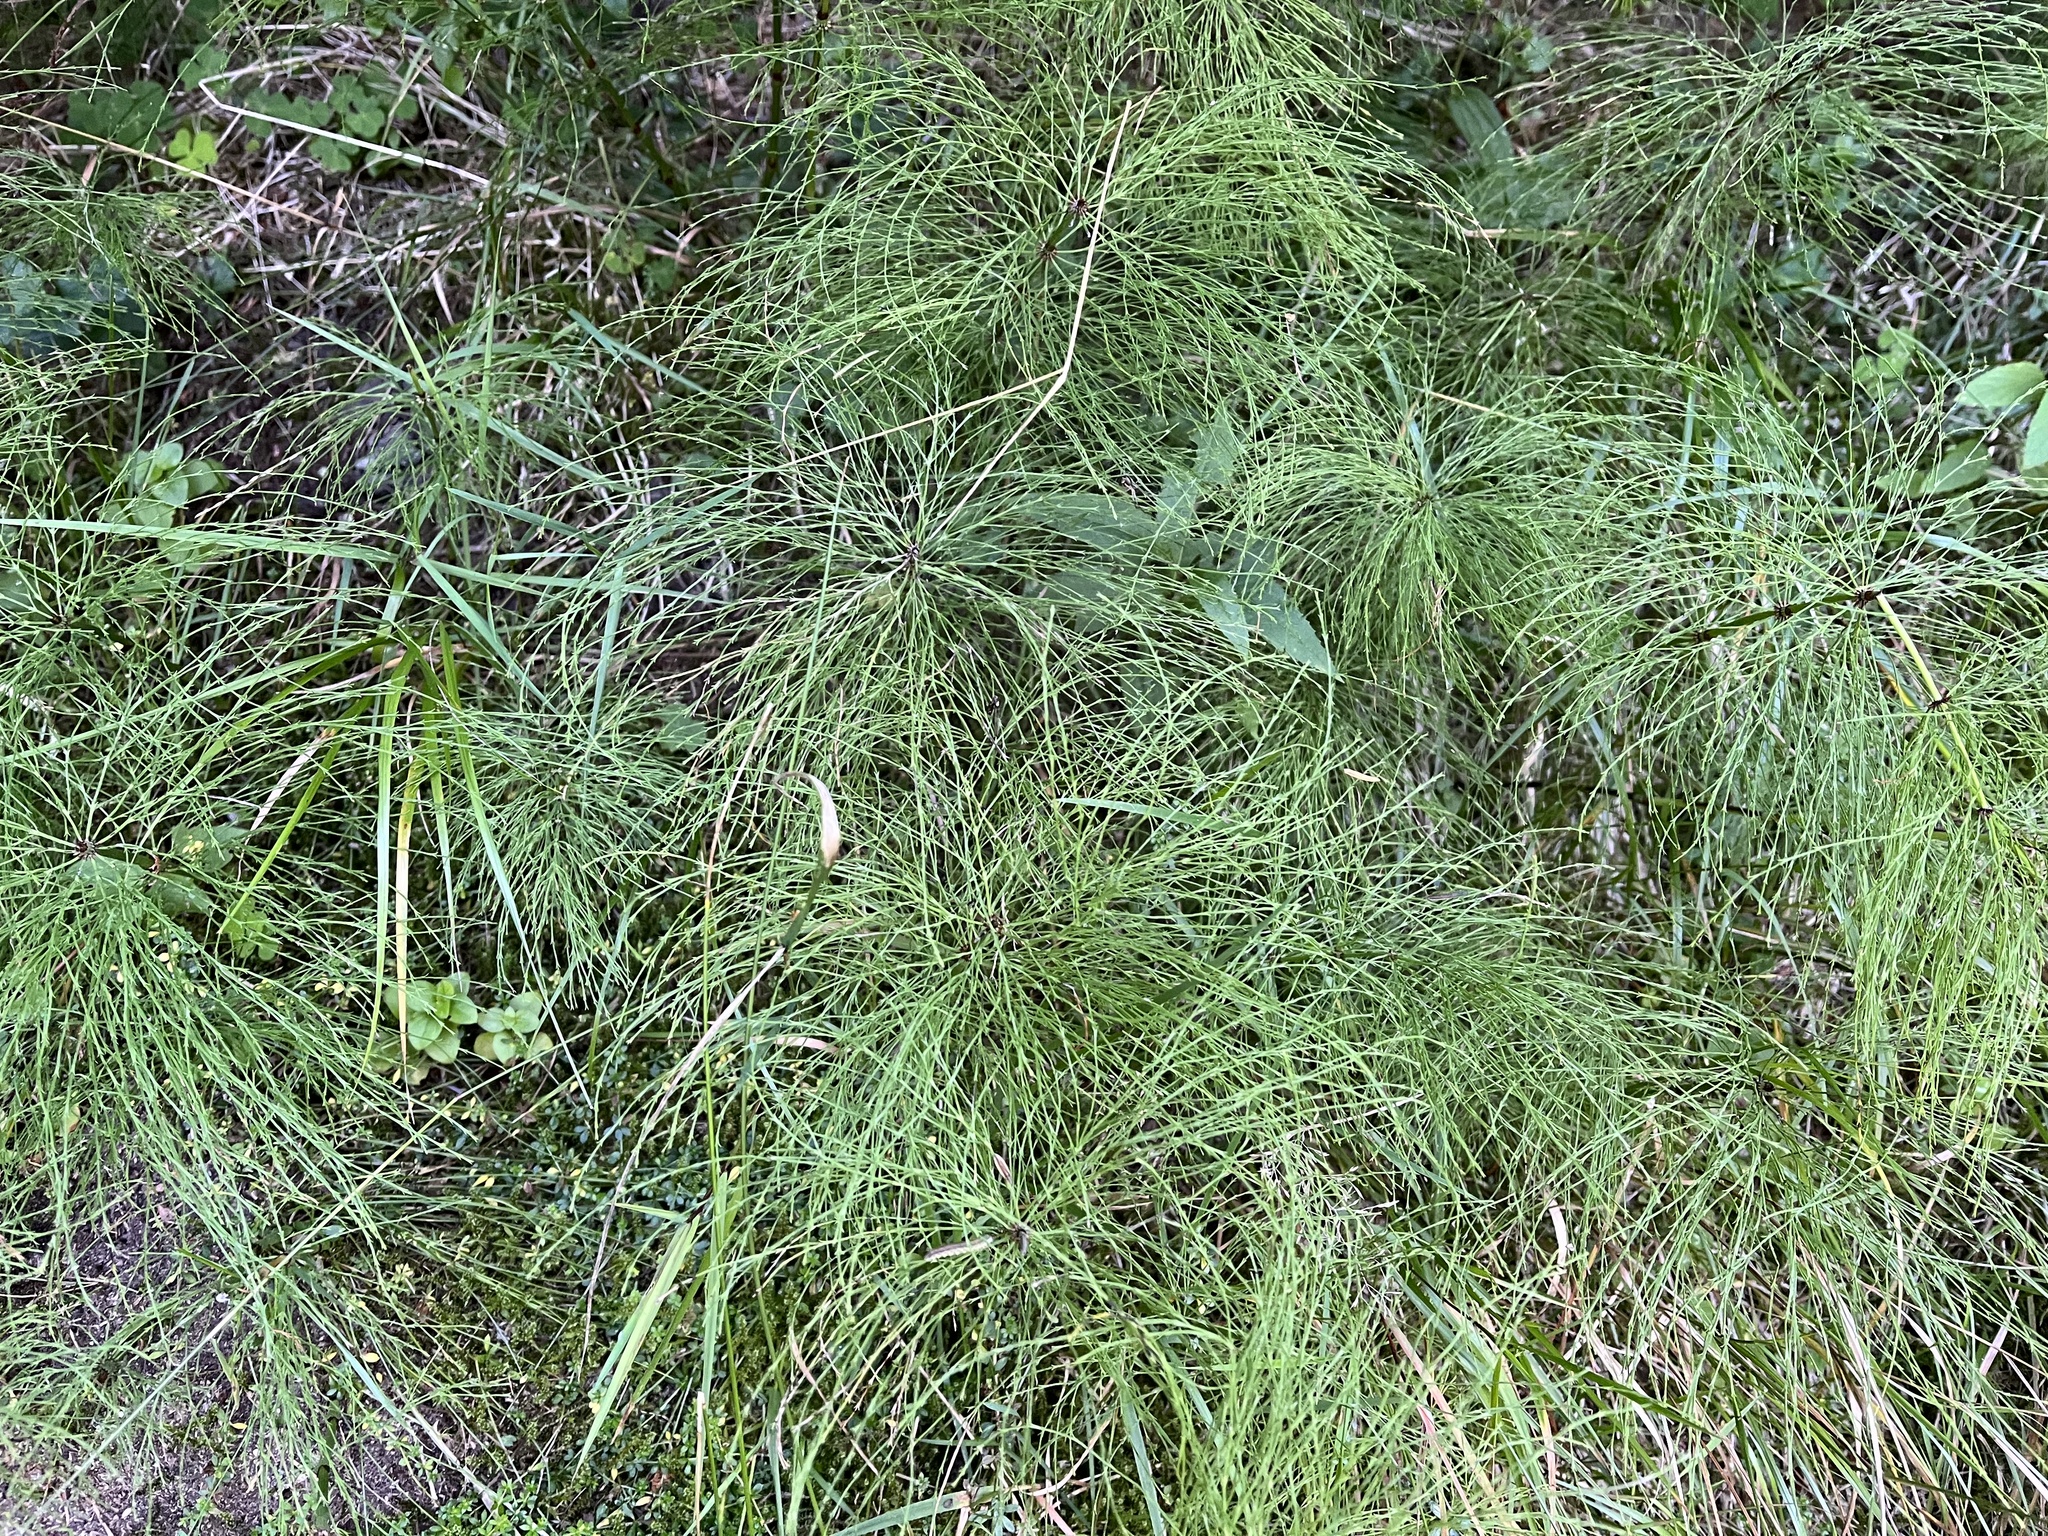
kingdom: Plantae
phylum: Tracheophyta
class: Polypodiopsida
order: Equisetales
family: Equisetaceae
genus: Equisetum
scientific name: Equisetum sylvaticum
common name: Wood horsetail
